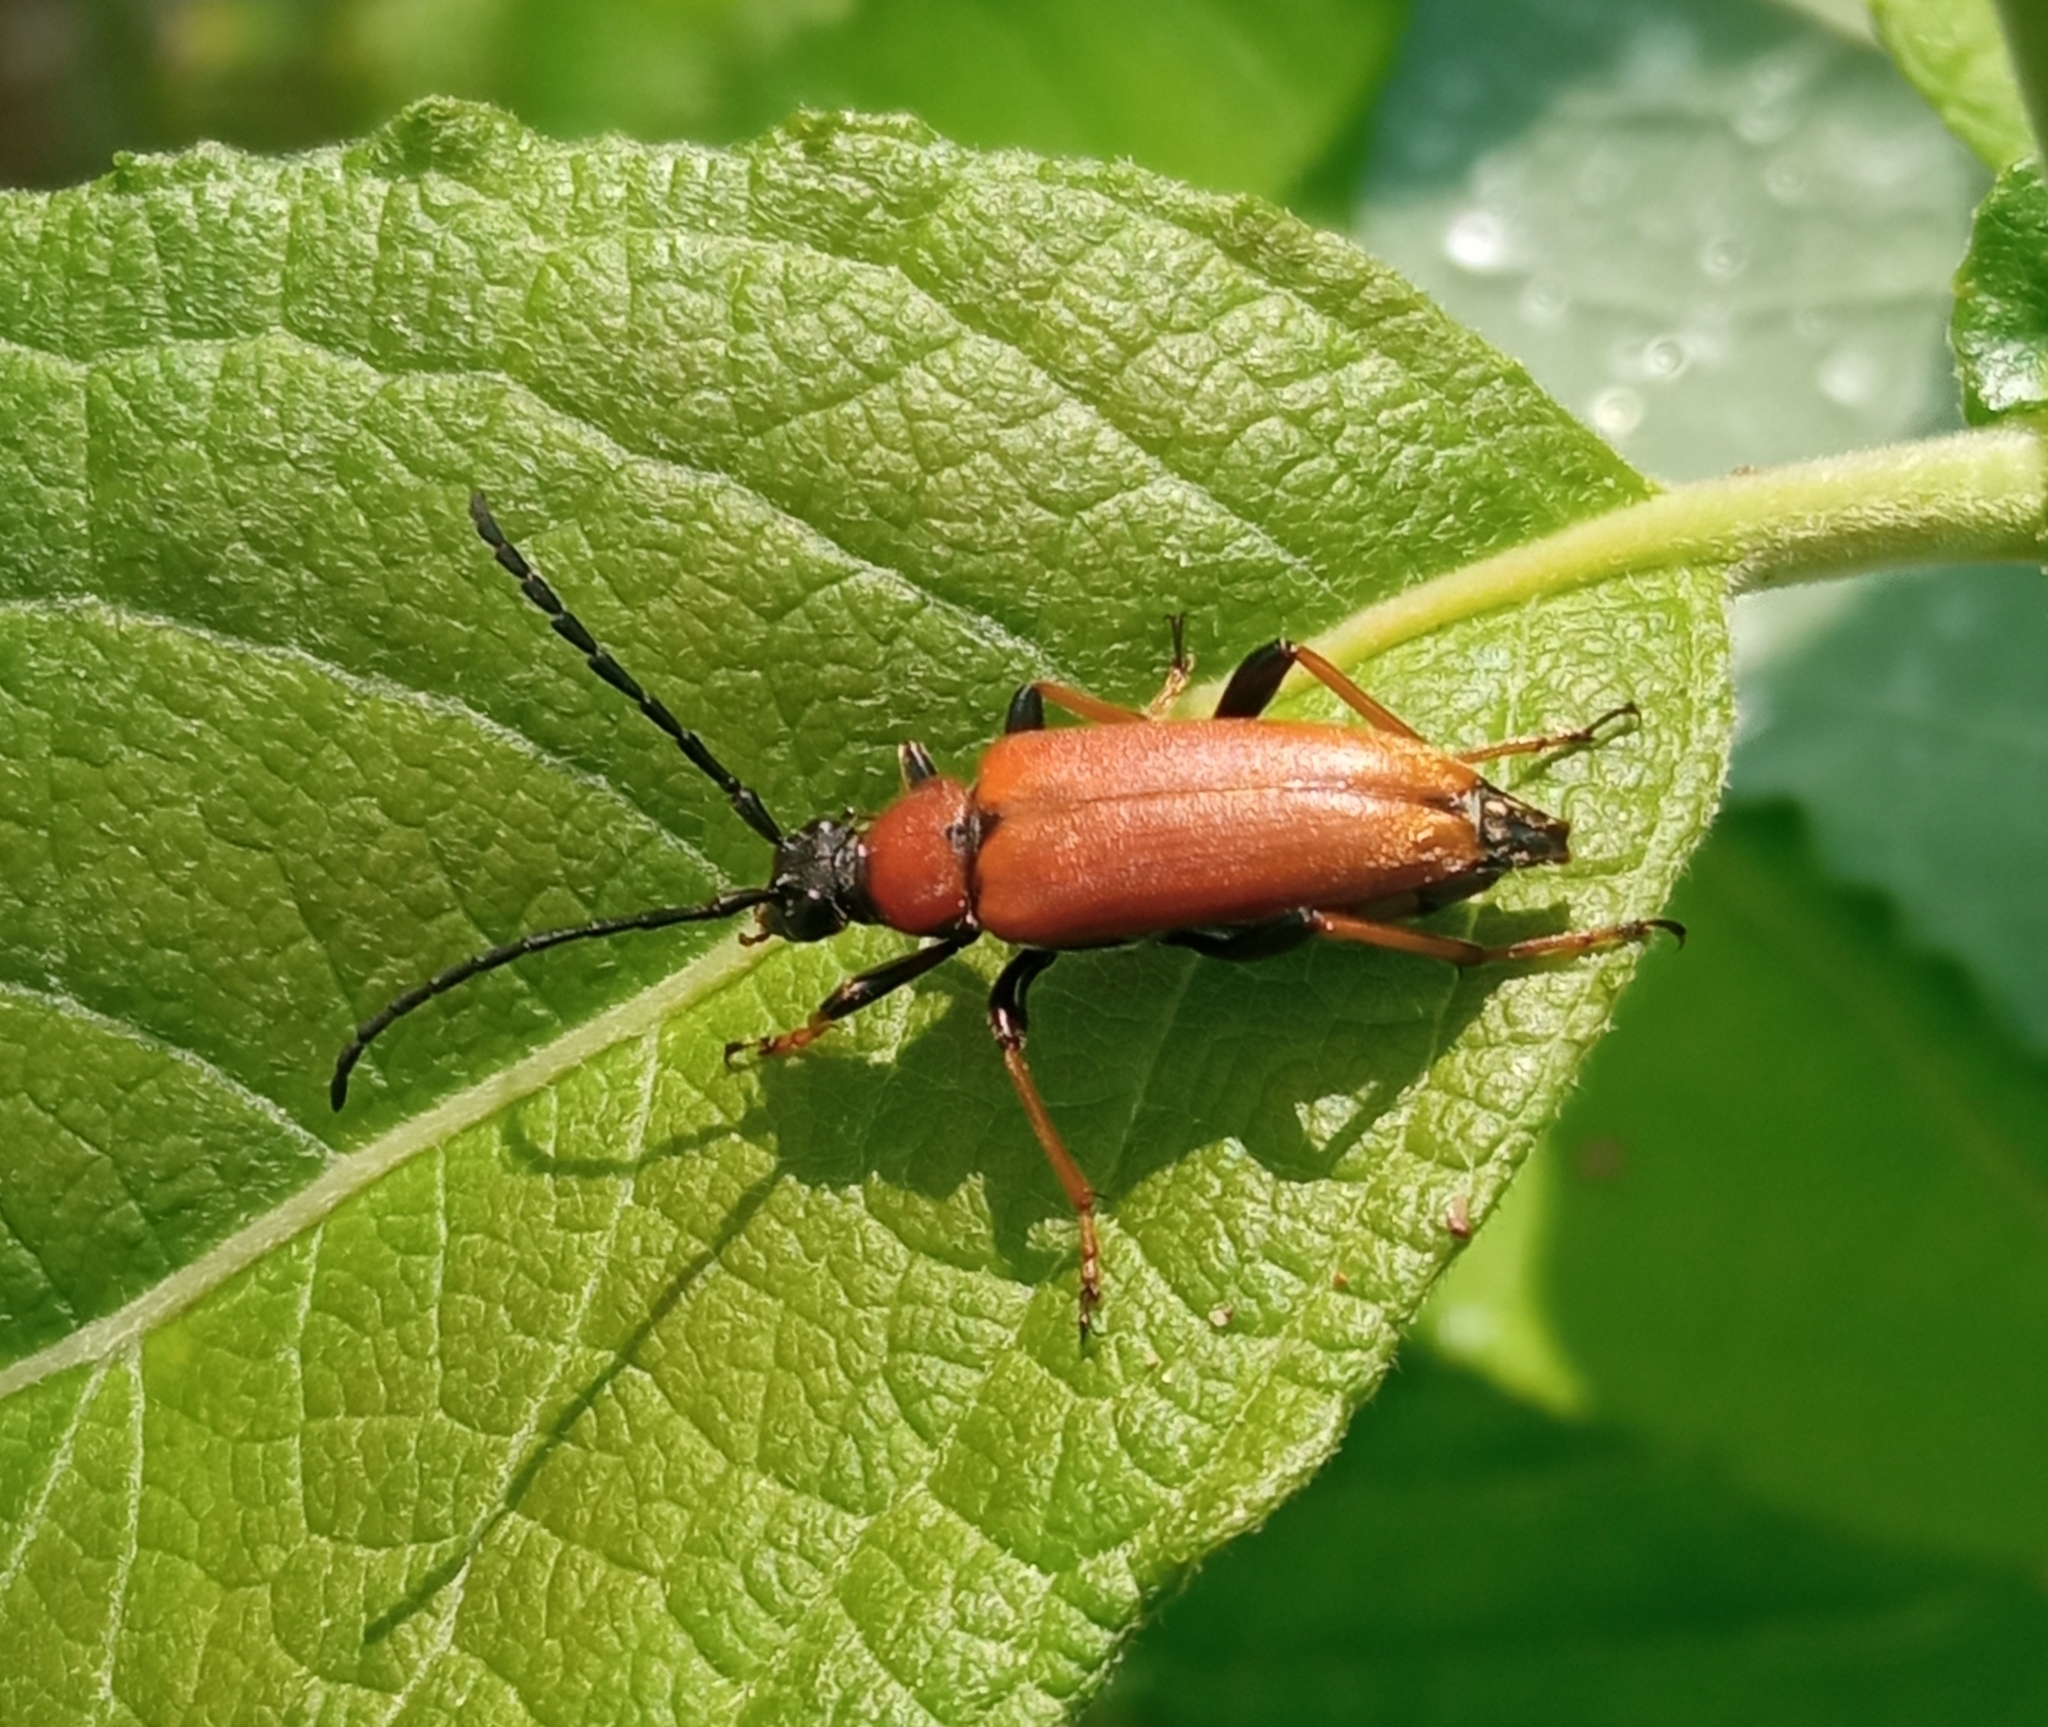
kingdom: Animalia
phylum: Arthropoda
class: Insecta
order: Coleoptera
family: Cerambycidae
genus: Stictoleptura
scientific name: Stictoleptura rubra
